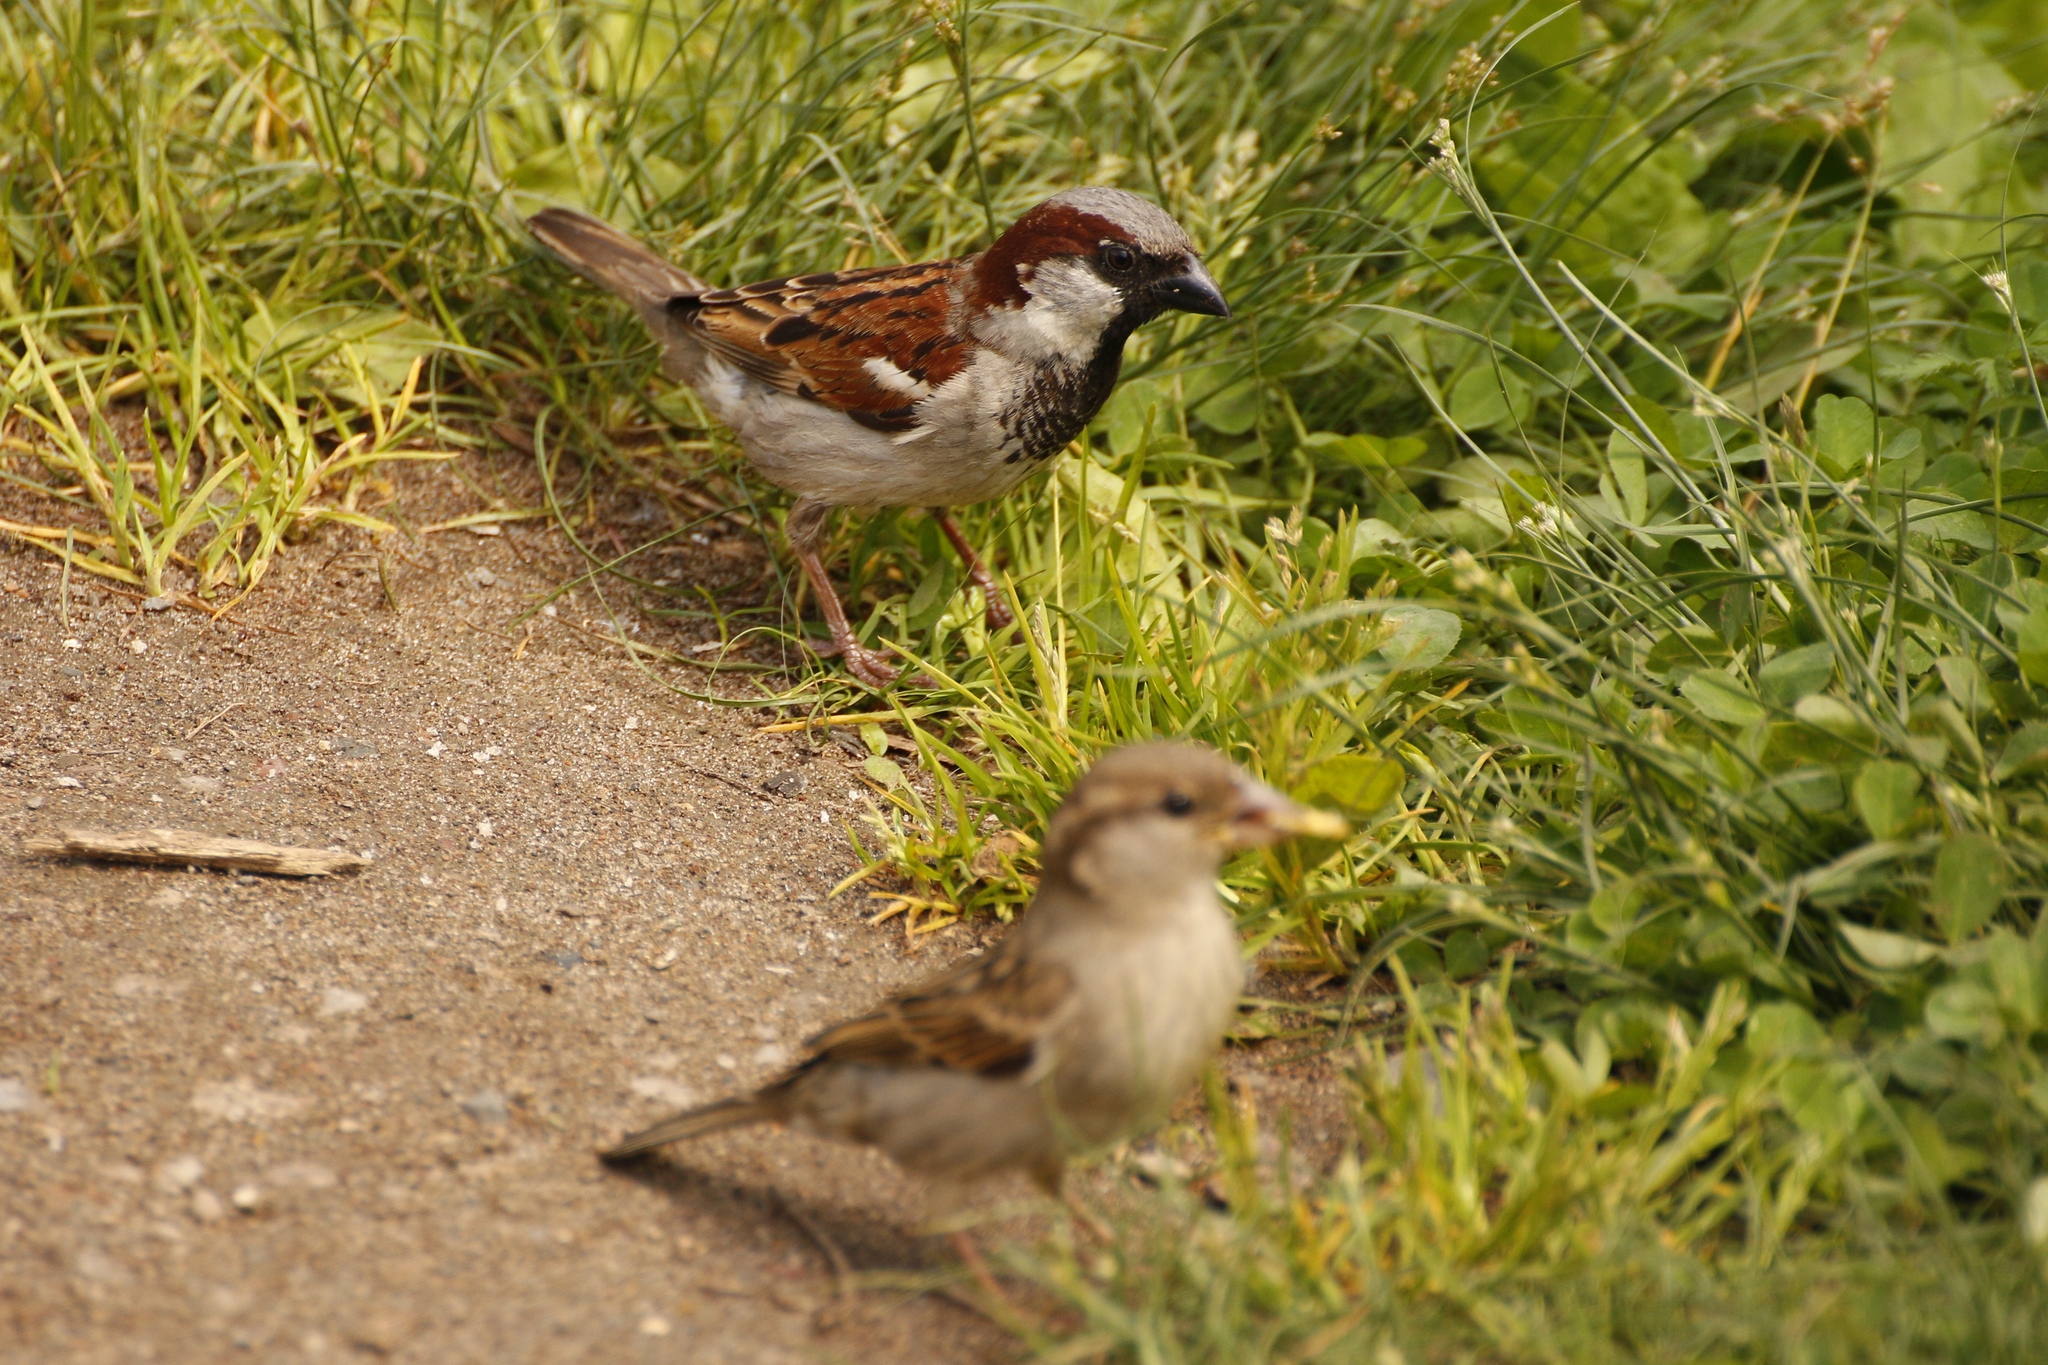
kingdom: Animalia
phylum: Chordata
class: Aves
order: Passeriformes
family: Passeridae
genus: Passer
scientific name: Passer domesticus
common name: House sparrow
